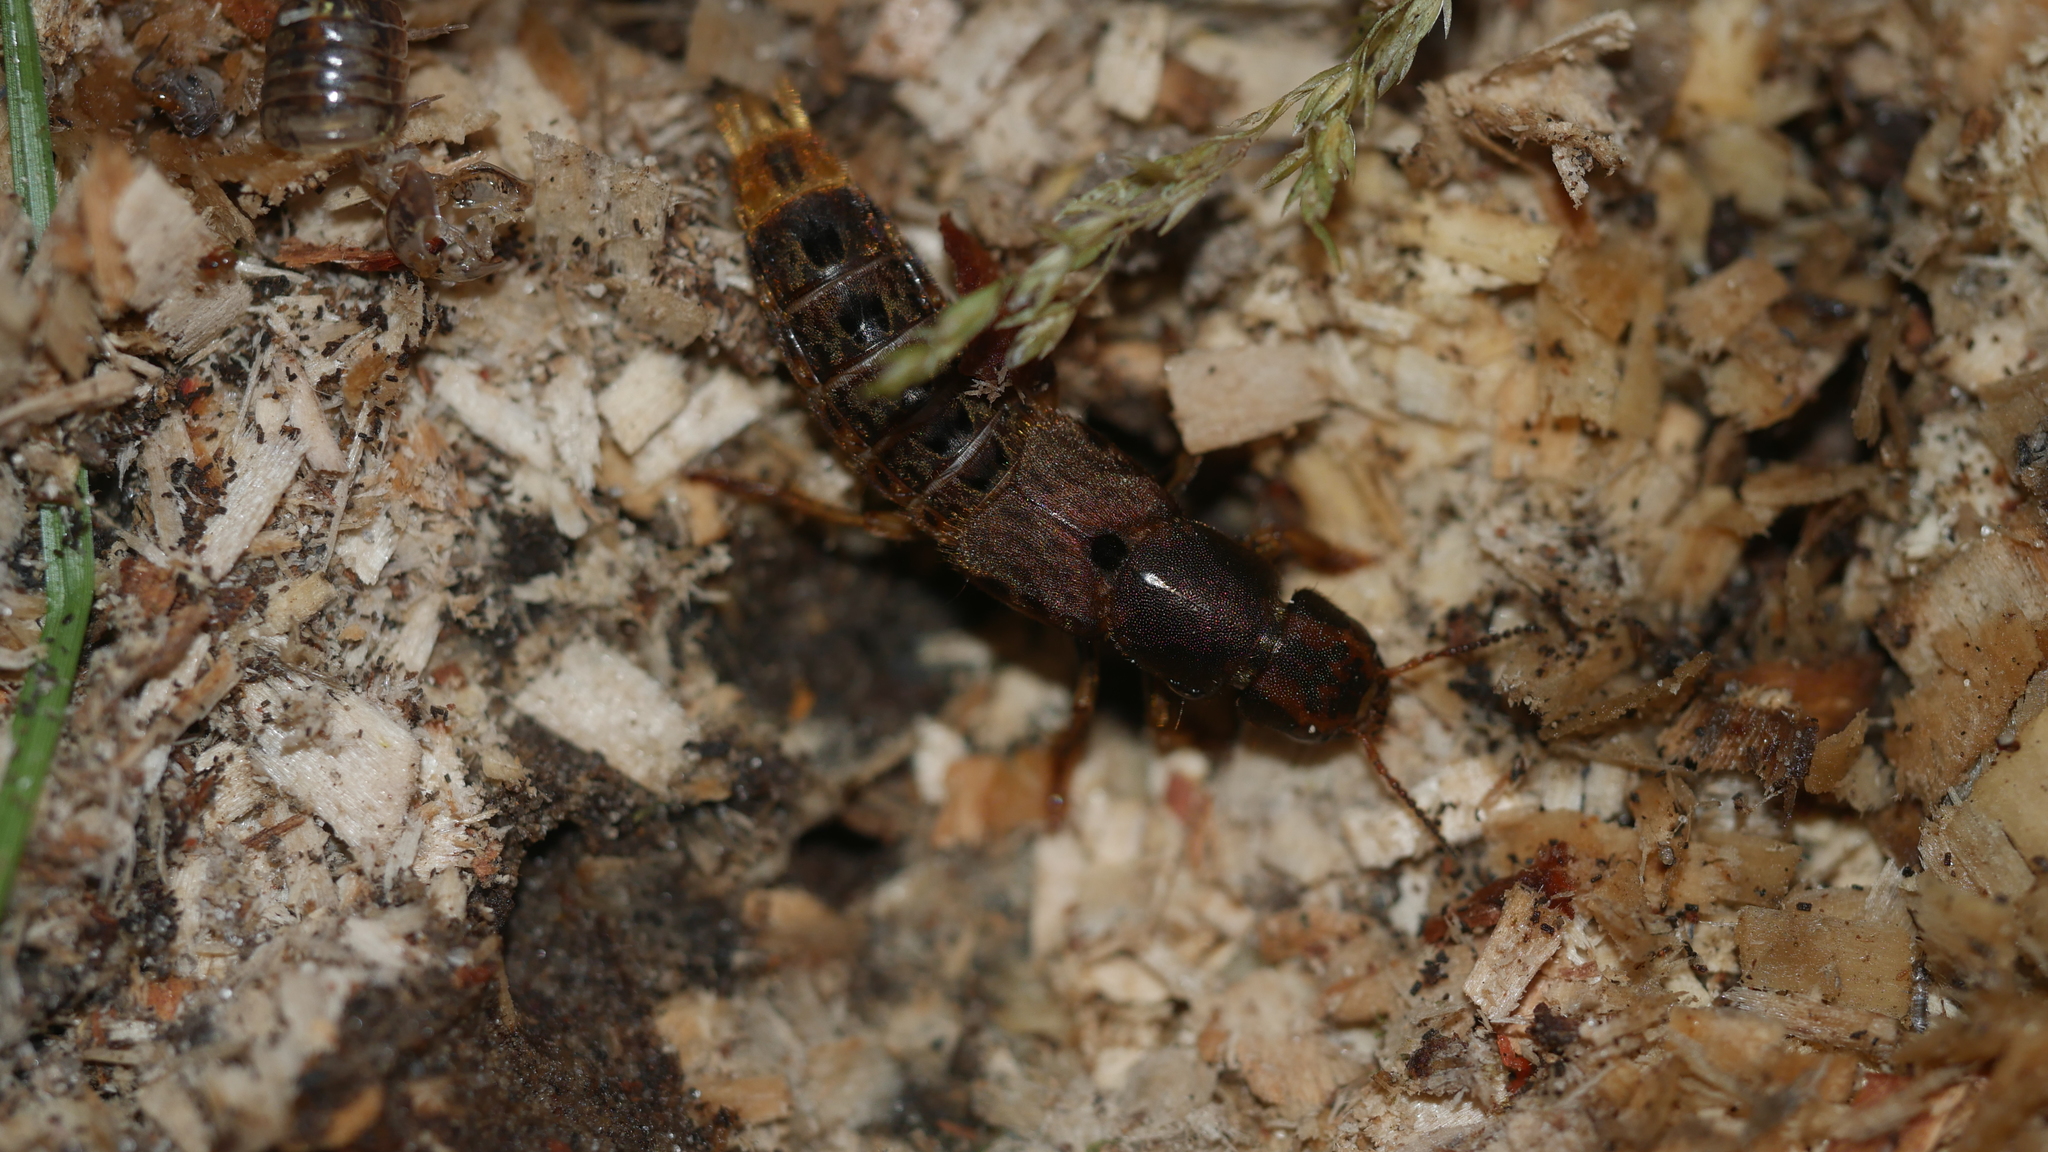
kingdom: Animalia
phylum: Arthropoda
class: Insecta
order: Coleoptera
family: Staphylinidae
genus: Platydracus
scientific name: Platydracus maculosus
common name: Brown rove beetle
